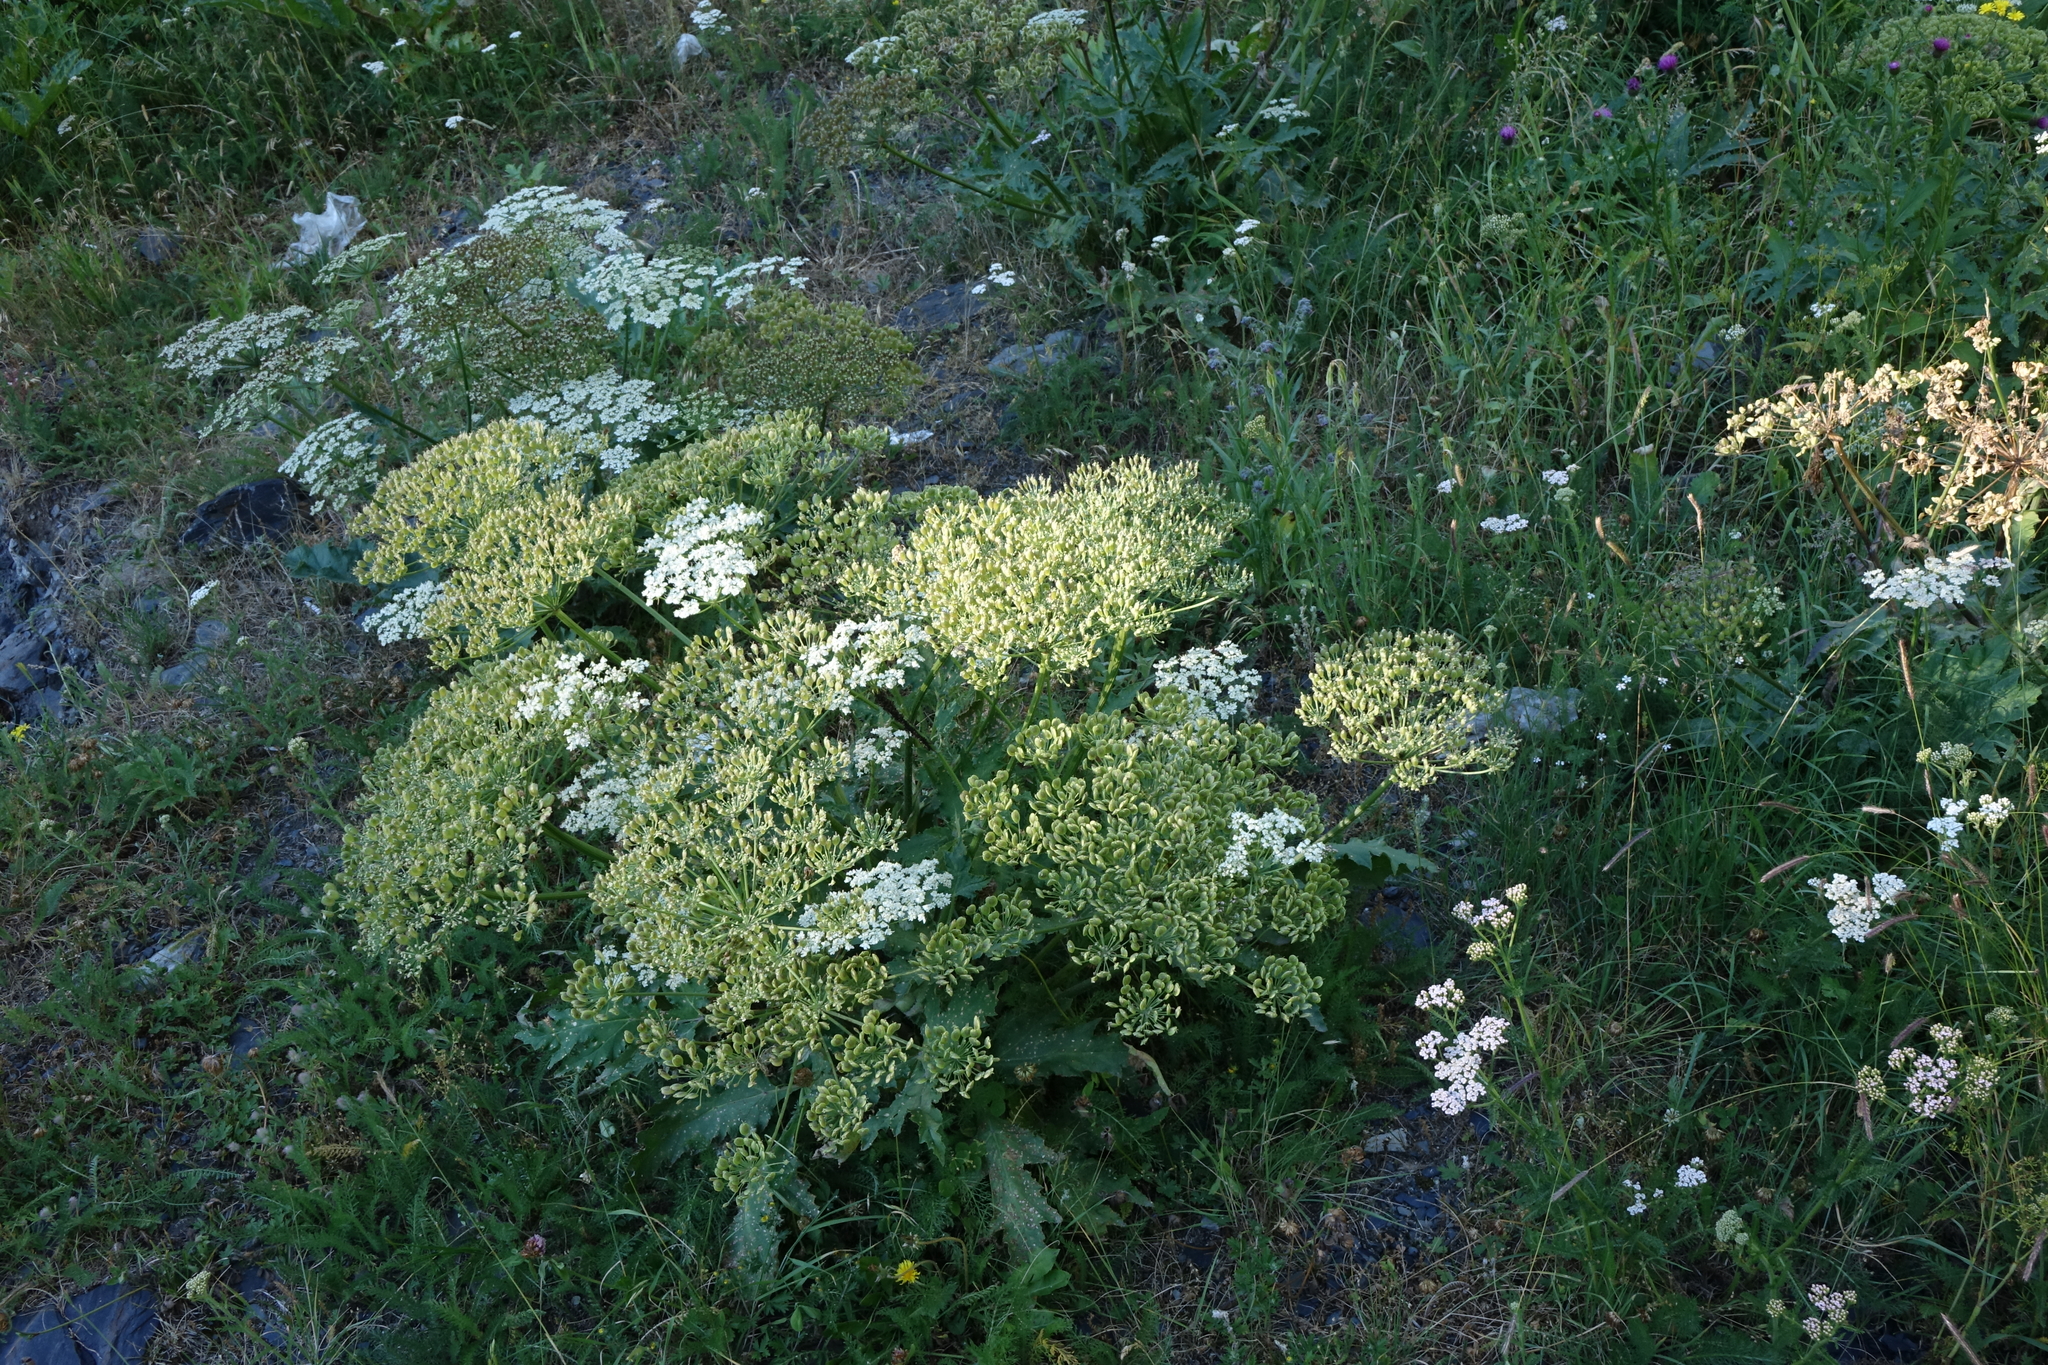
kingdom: Plantae
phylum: Tracheophyta
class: Magnoliopsida
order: Apiales
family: Apiaceae
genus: Heracleum
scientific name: Heracleum grandiflorum
